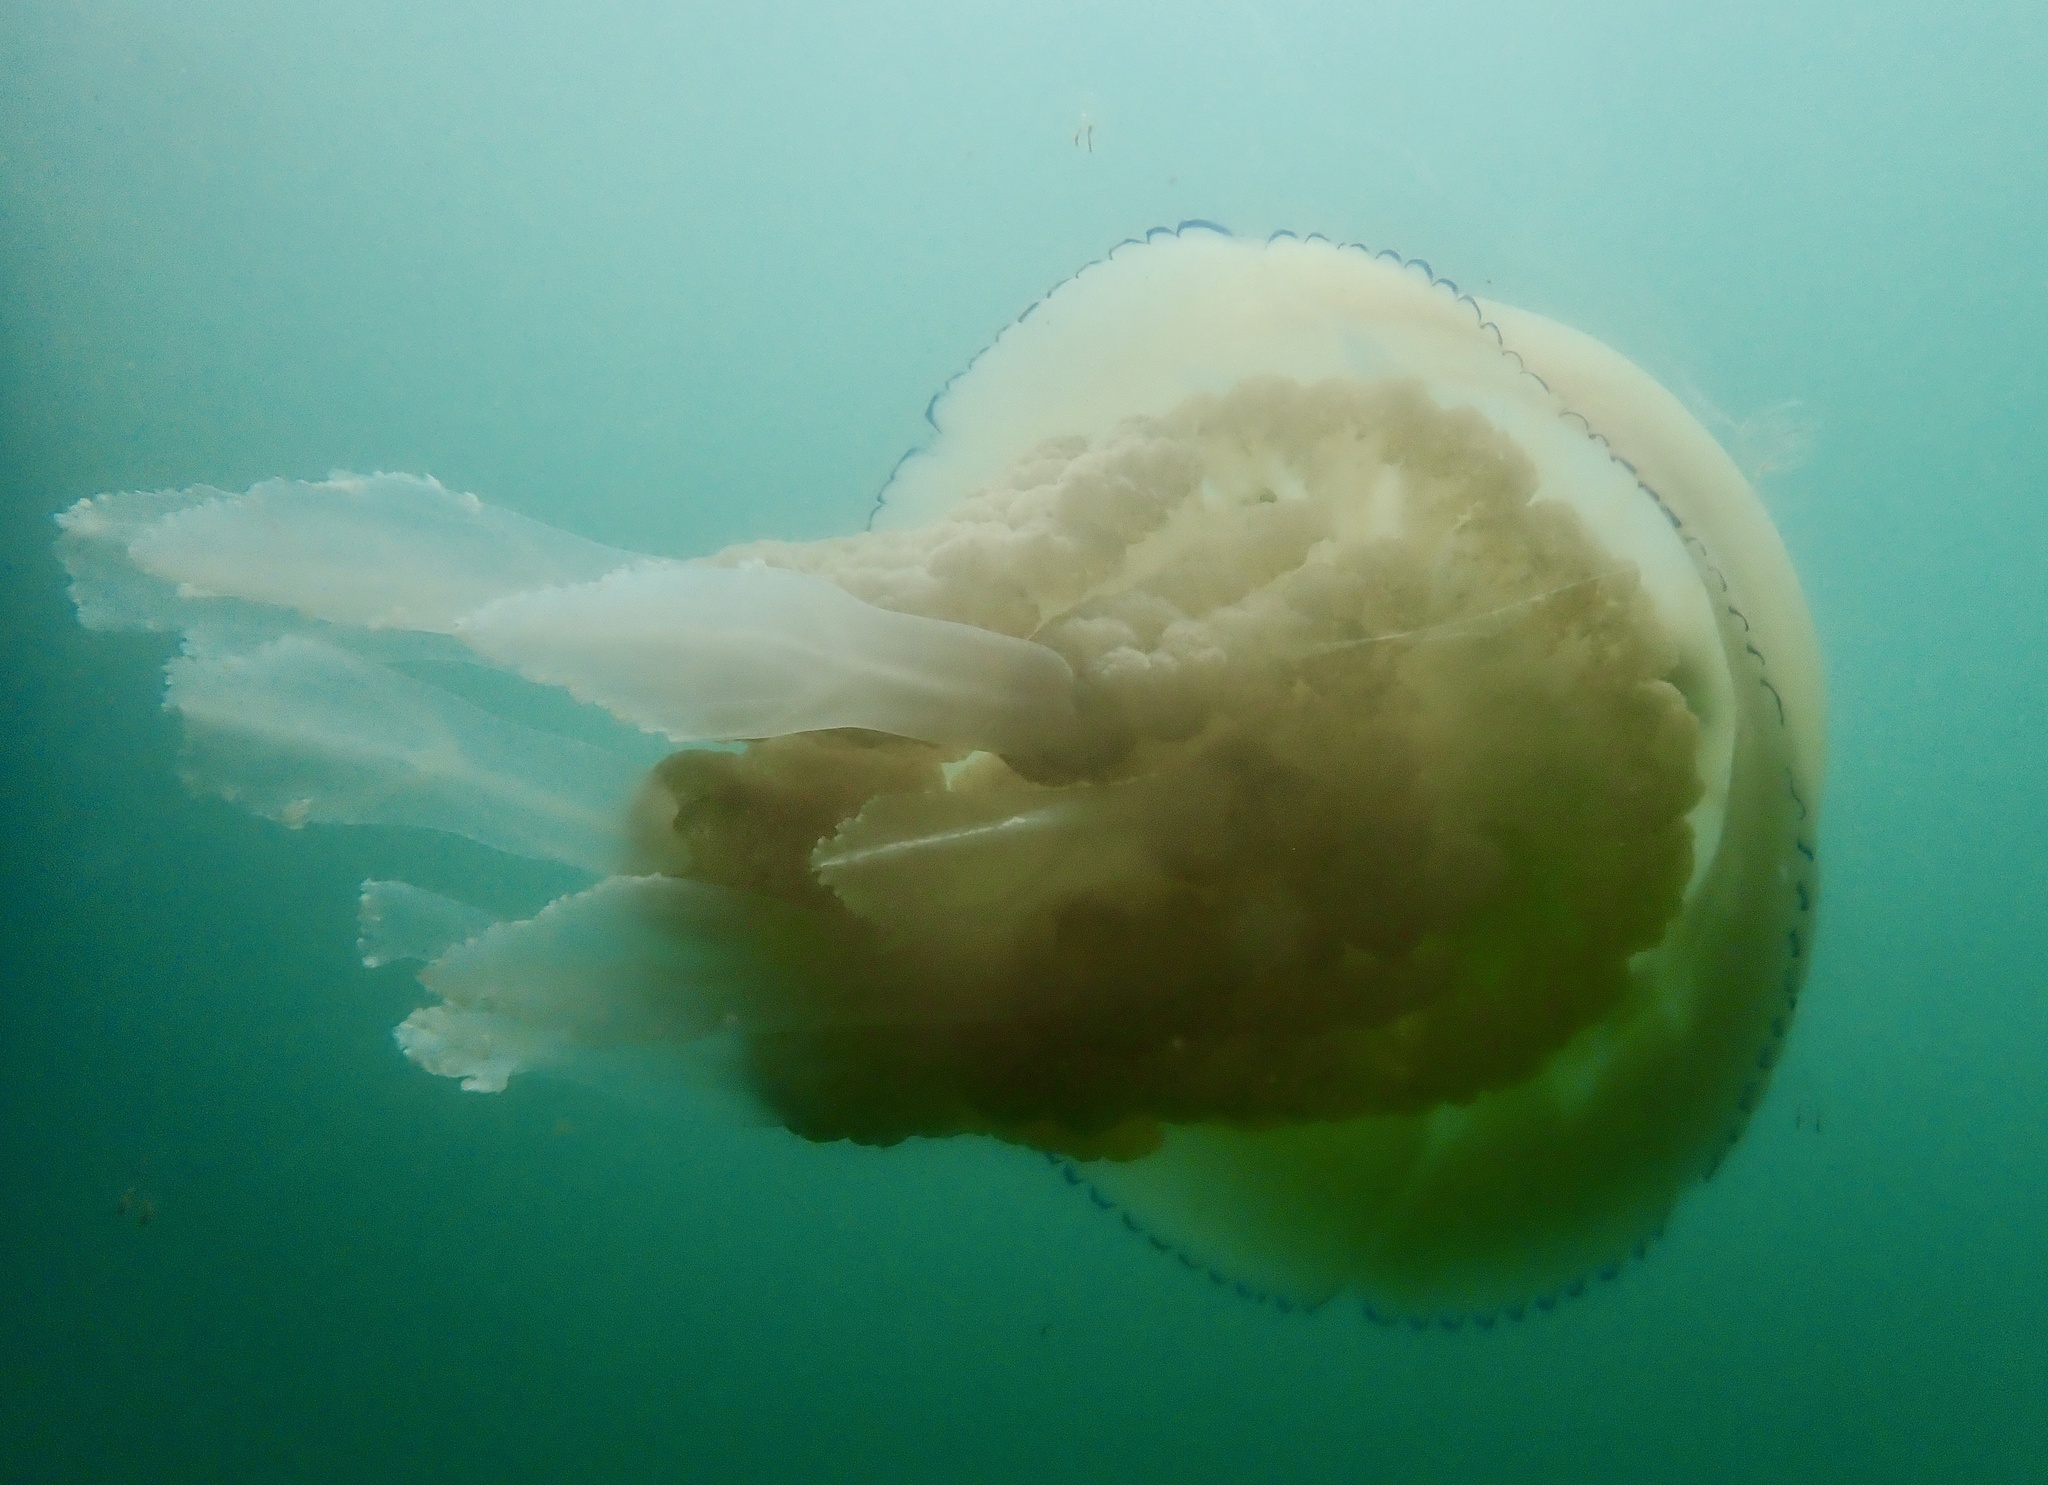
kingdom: Animalia
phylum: Cnidaria
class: Scyphozoa
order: Rhizostomeae
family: Rhizostomatidae
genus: Rhizostoma
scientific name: Rhizostoma octopus
